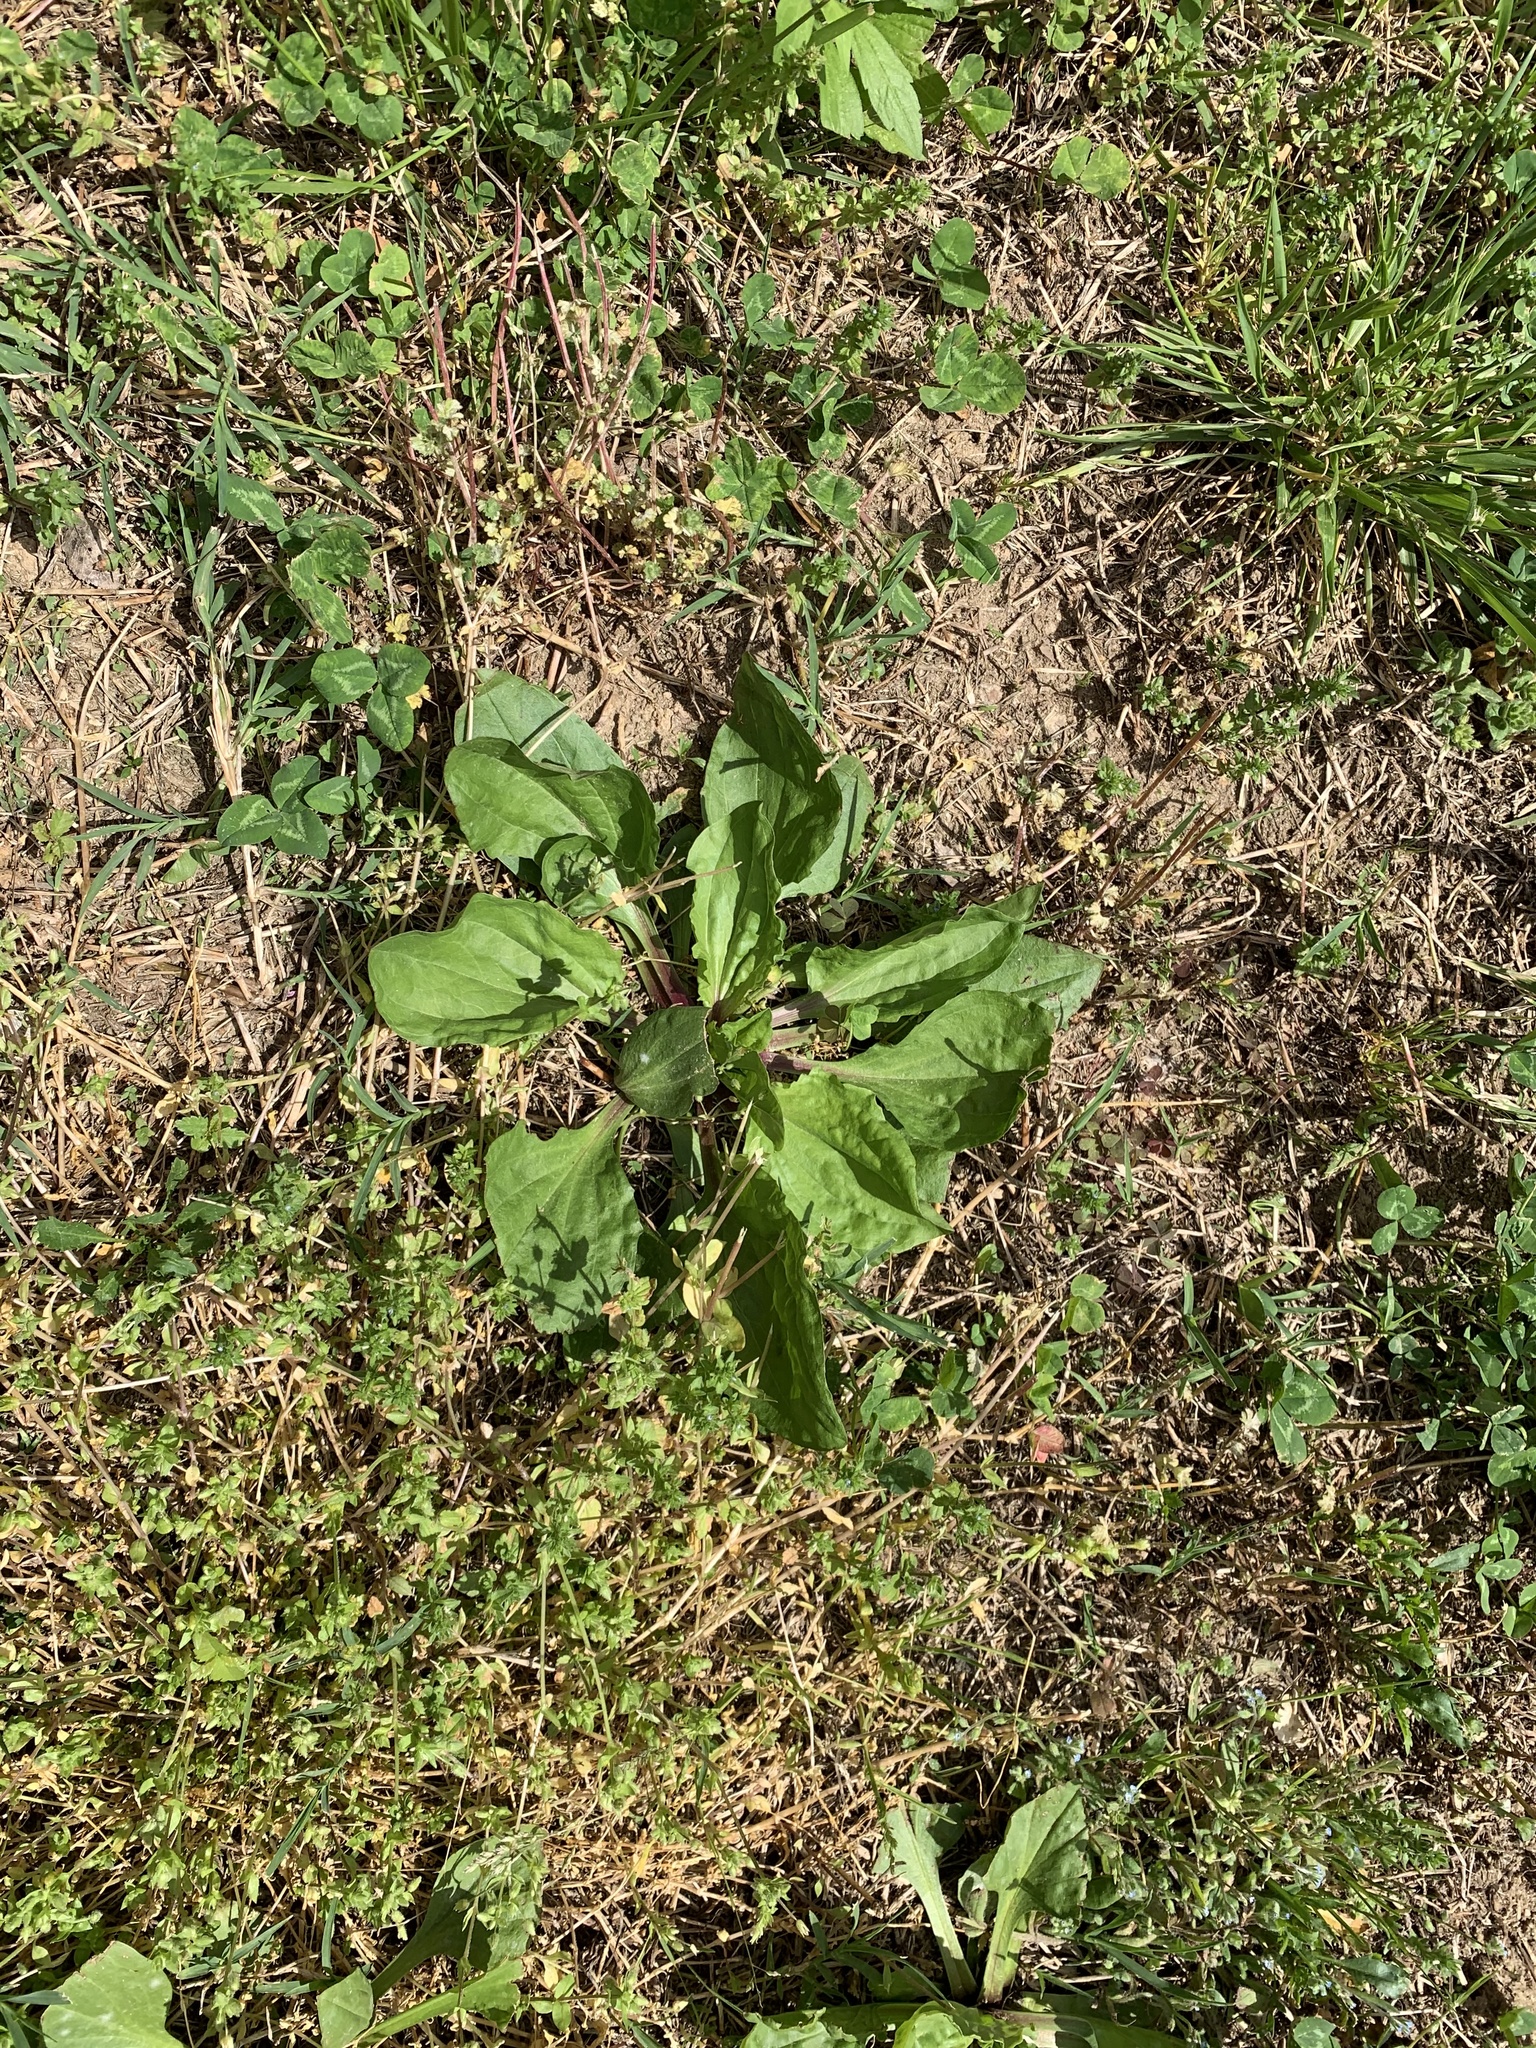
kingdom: Plantae
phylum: Tracheophyta
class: Magnoliopsida
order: Lamiales
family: Plantaginaceae
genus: Plantago
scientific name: Plantago rugelii
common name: American plantain
